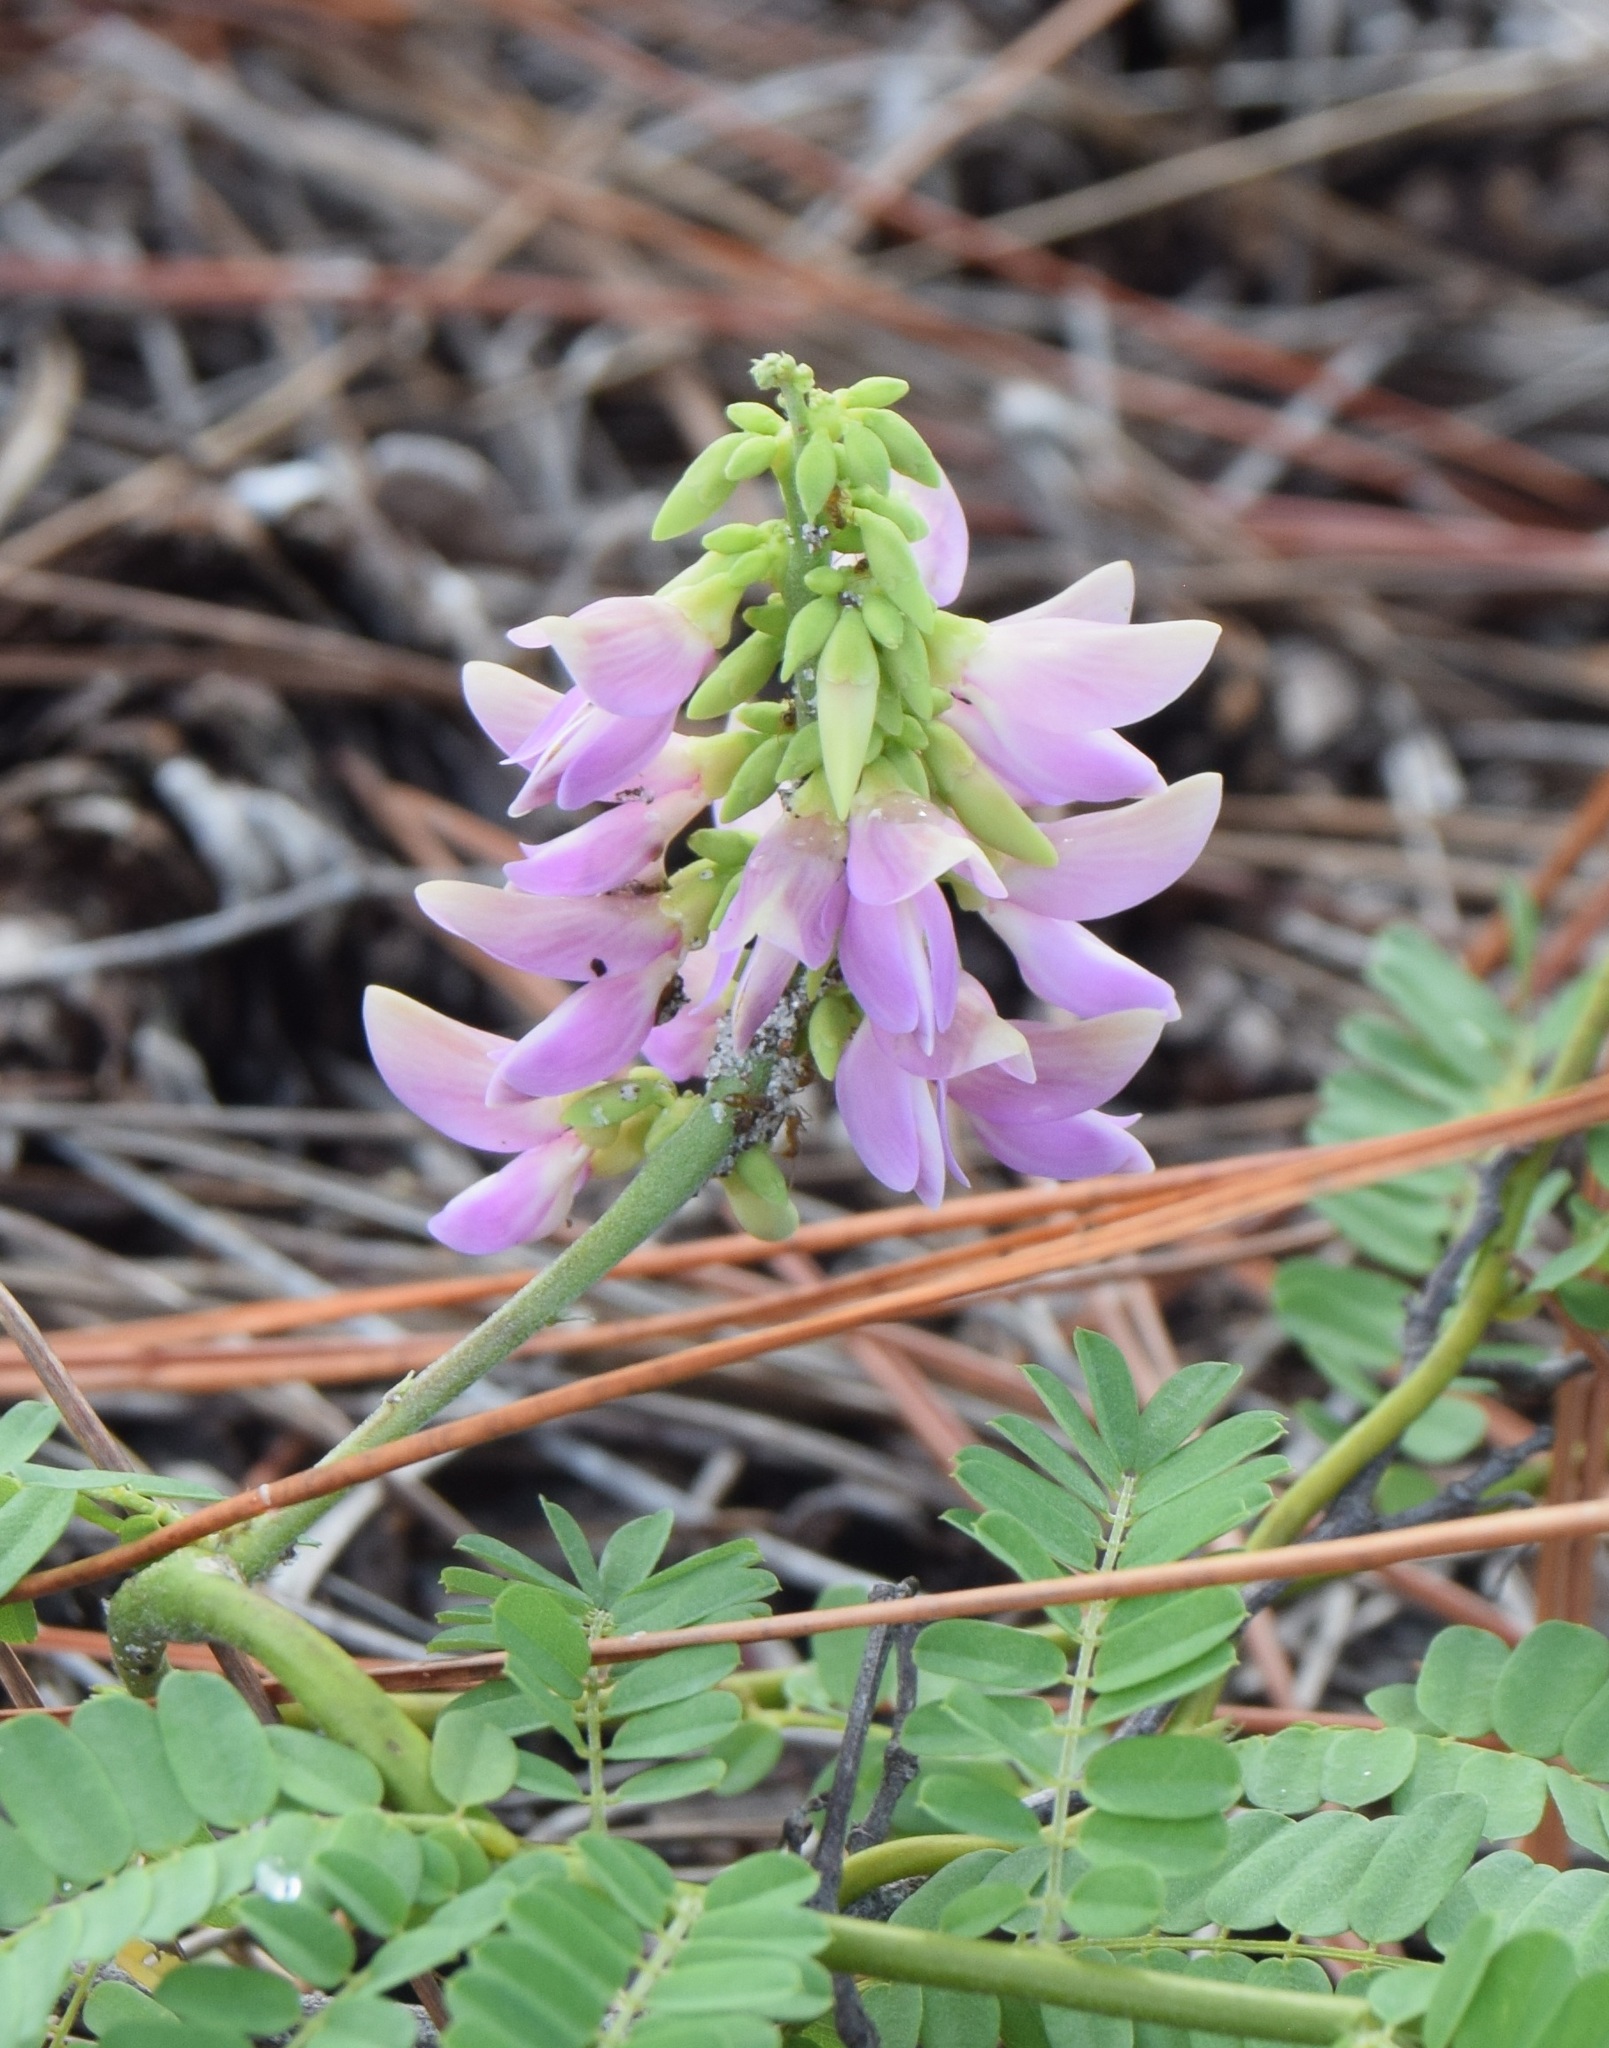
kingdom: Plantae
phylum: Tracheophyta
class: Magnoliopsida
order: Fabales
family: Fabaceae
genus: Abrus
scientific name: Abrus precatorius
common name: Rosarypea
